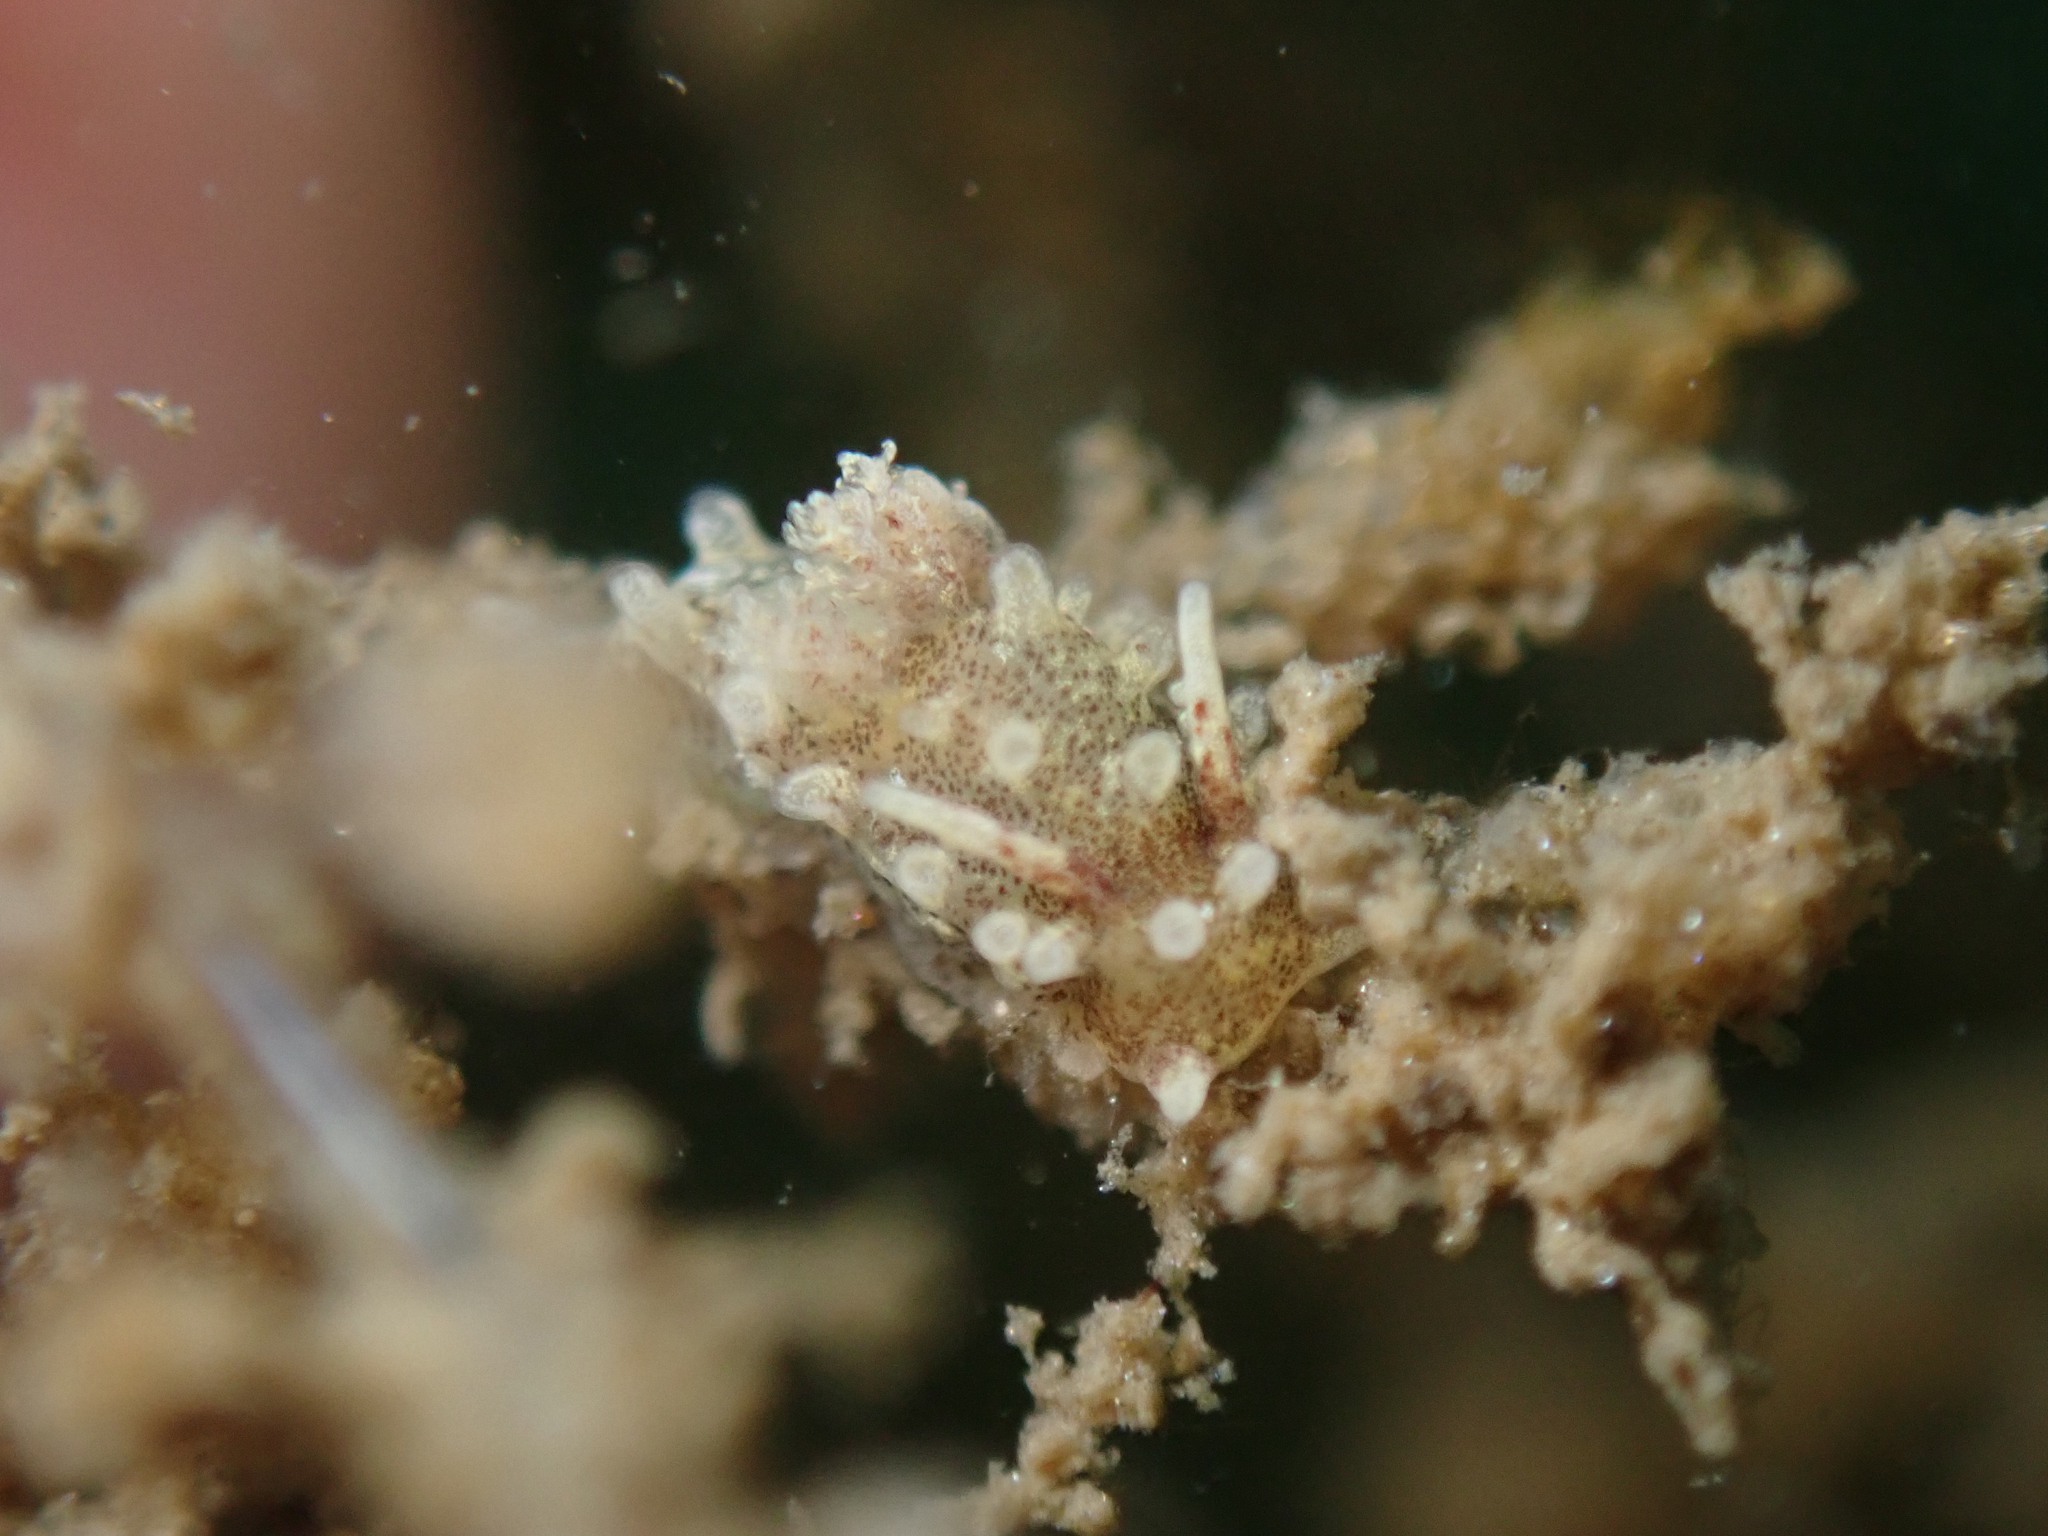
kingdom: Animalia
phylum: Mollusca
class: Gastropoda
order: Nudibranchia
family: Goniodorididae
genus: Okenia
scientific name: Okenia
